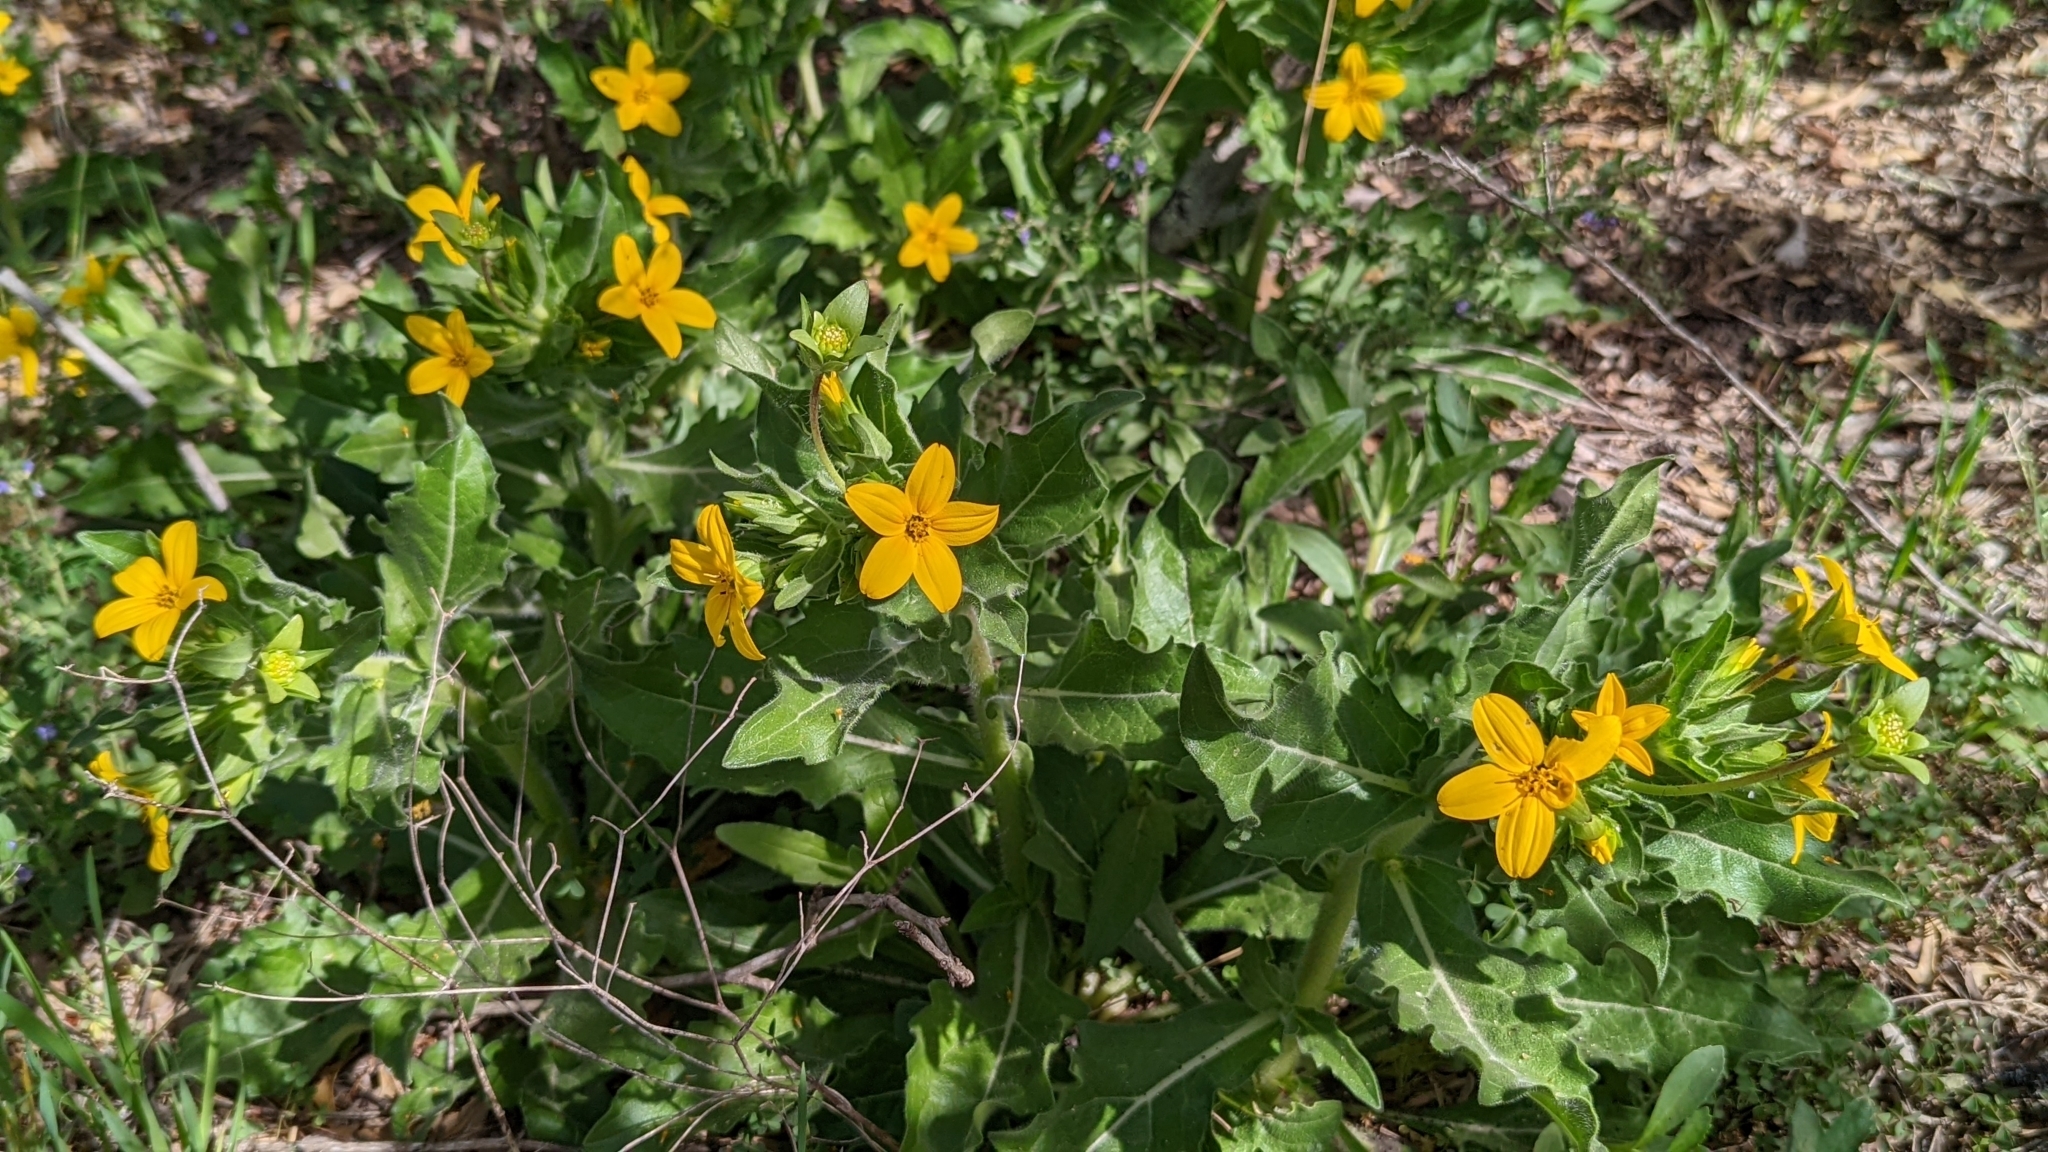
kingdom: Plantae
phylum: Tracheophyta
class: Magnoliopsida
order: Asterales
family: Asteraceae
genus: Lindheimera
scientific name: Lindheimera texana
